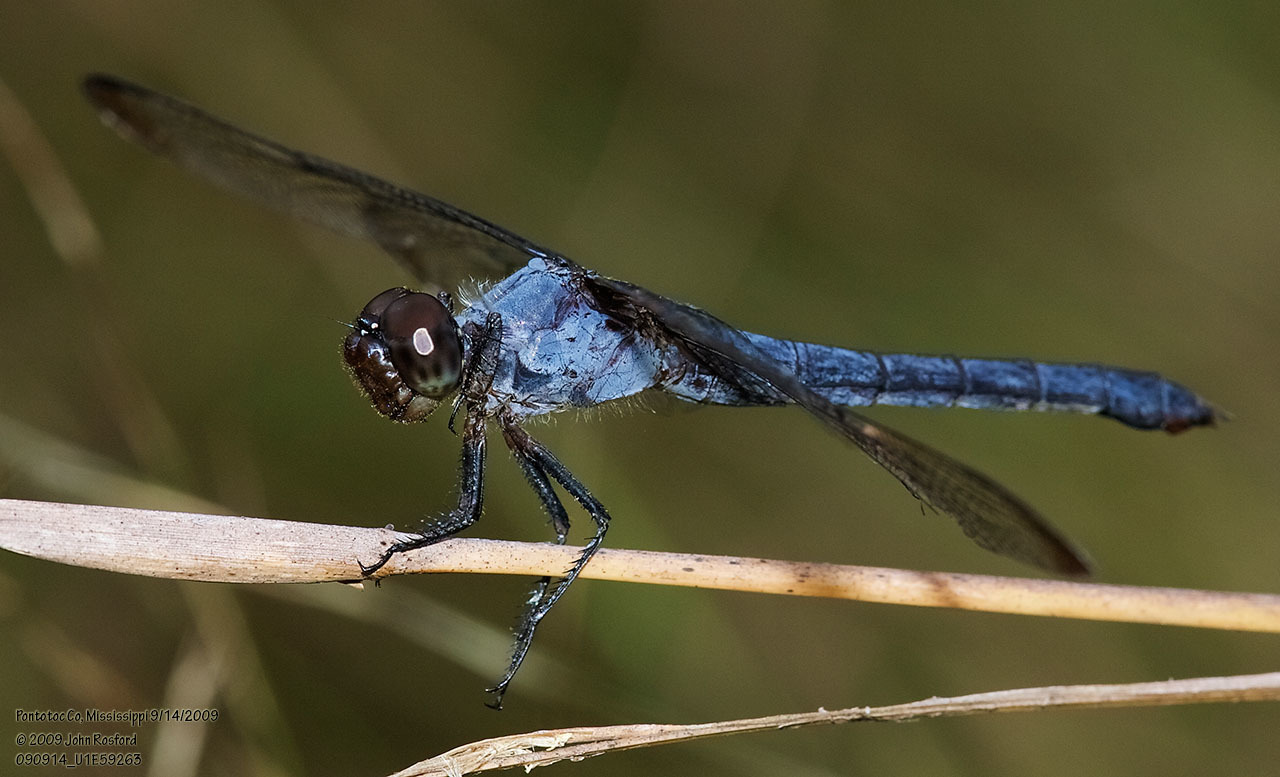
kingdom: Animalia
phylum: Arthropoda
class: Insecta
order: Odonata
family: Libellulidae
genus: Libellula
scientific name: Libellula incesta
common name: Slaty skimmer
